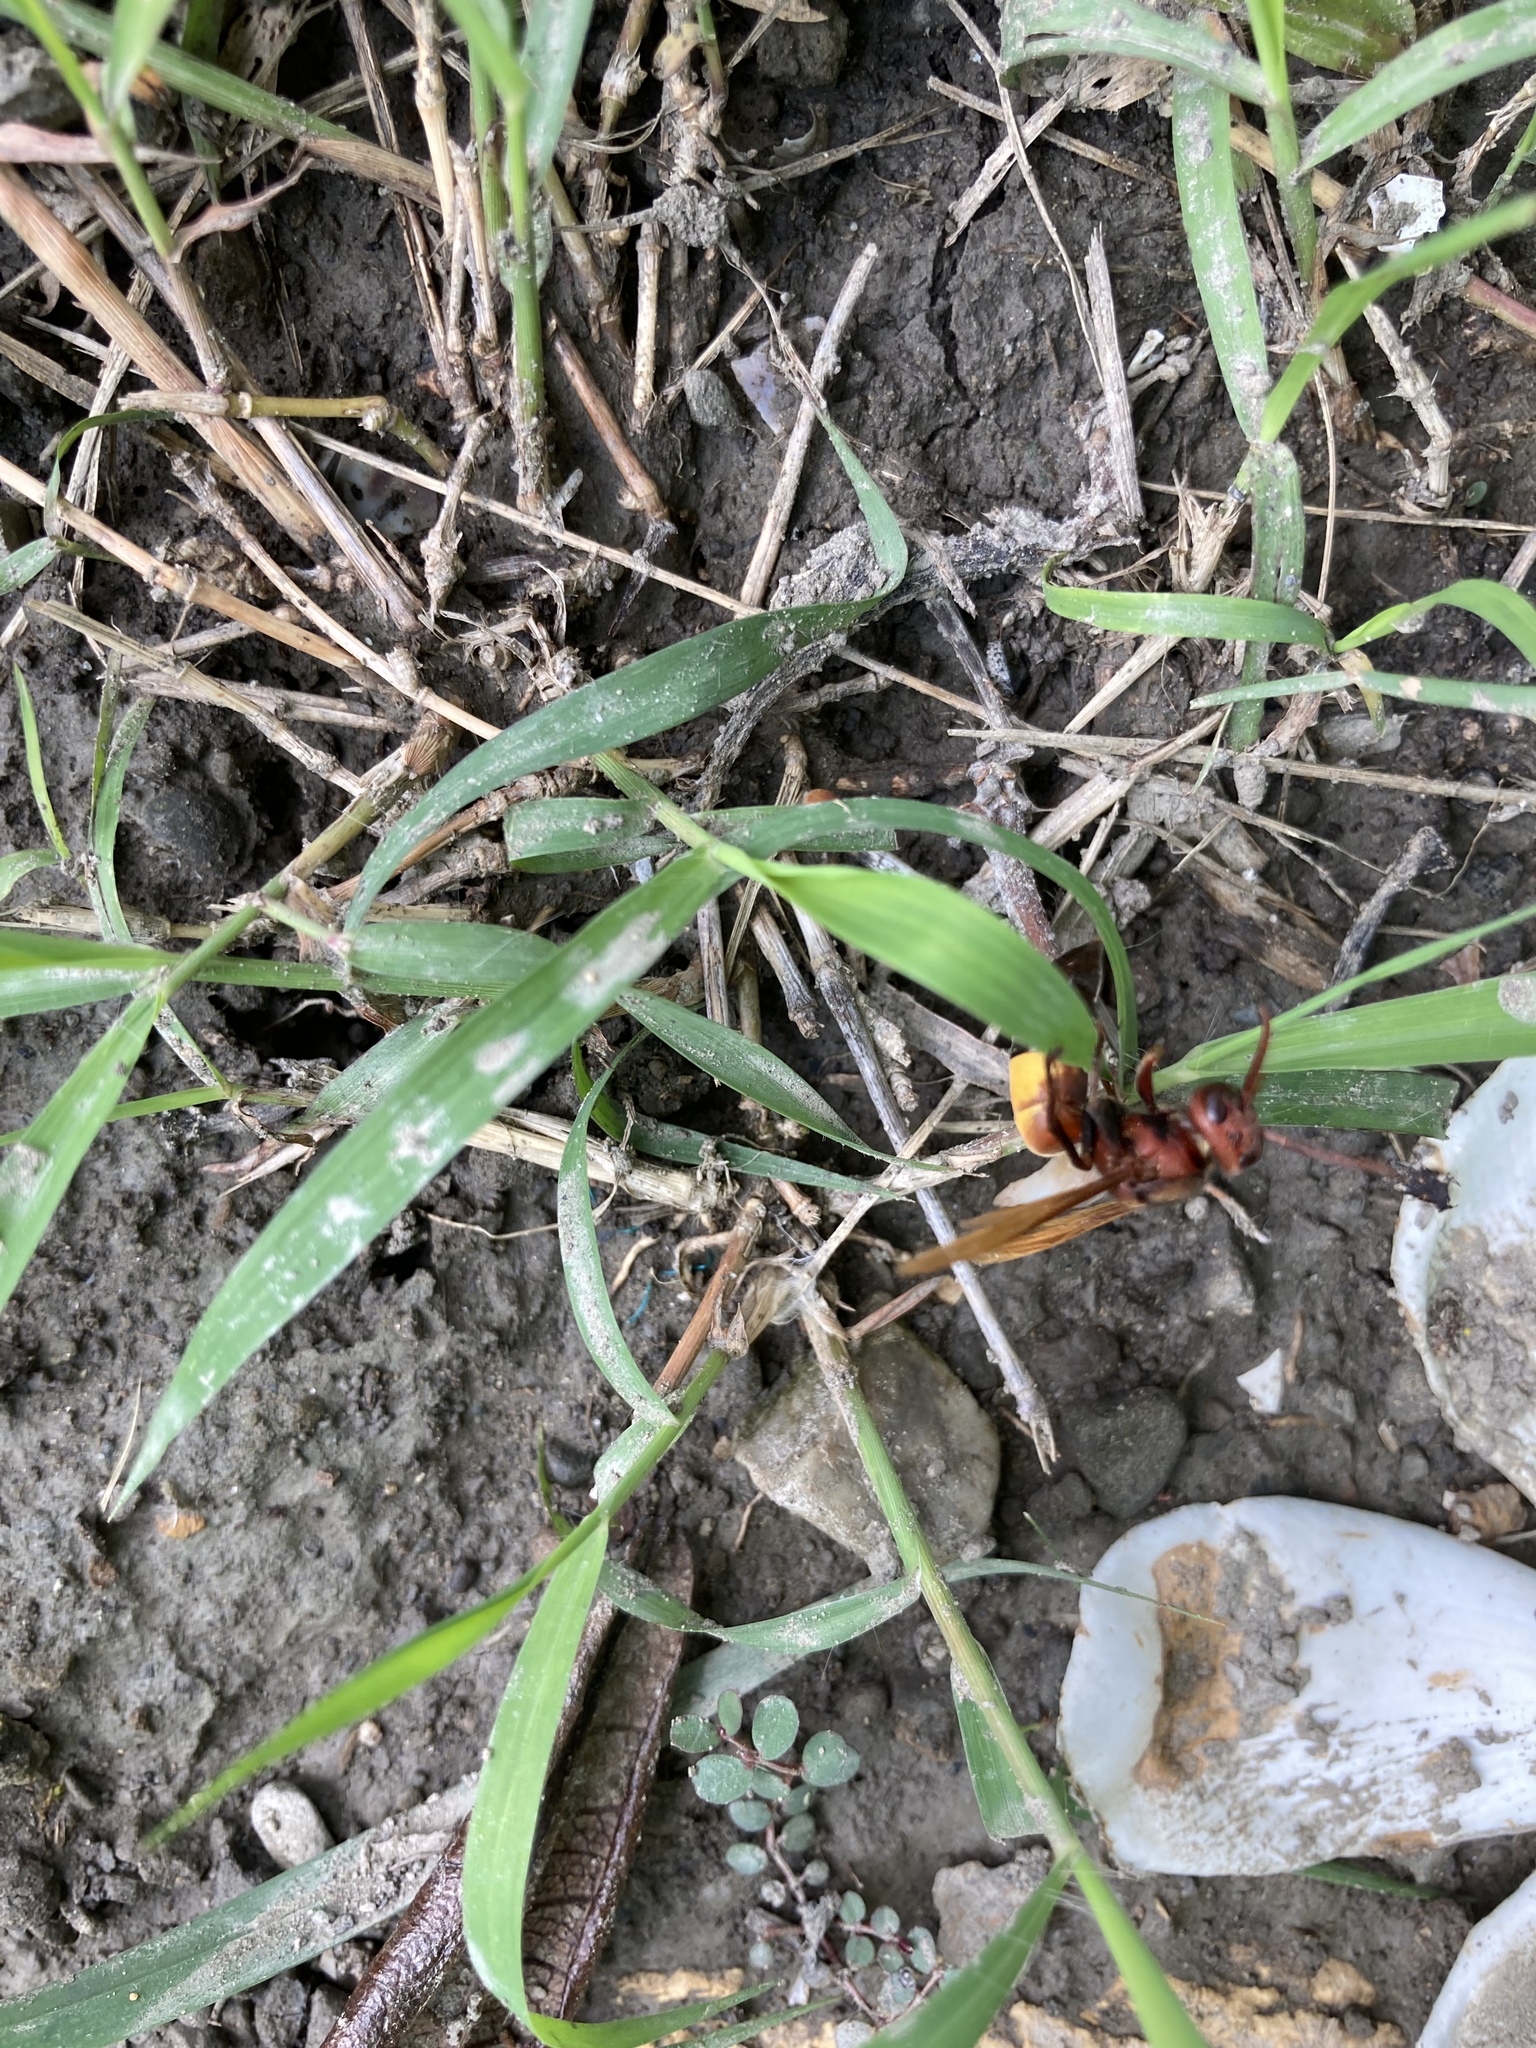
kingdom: Animalia
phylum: Arthropoda
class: Insecta
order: Hymenoptera
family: Vespidae
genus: Vespa
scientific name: Vespa affinis
